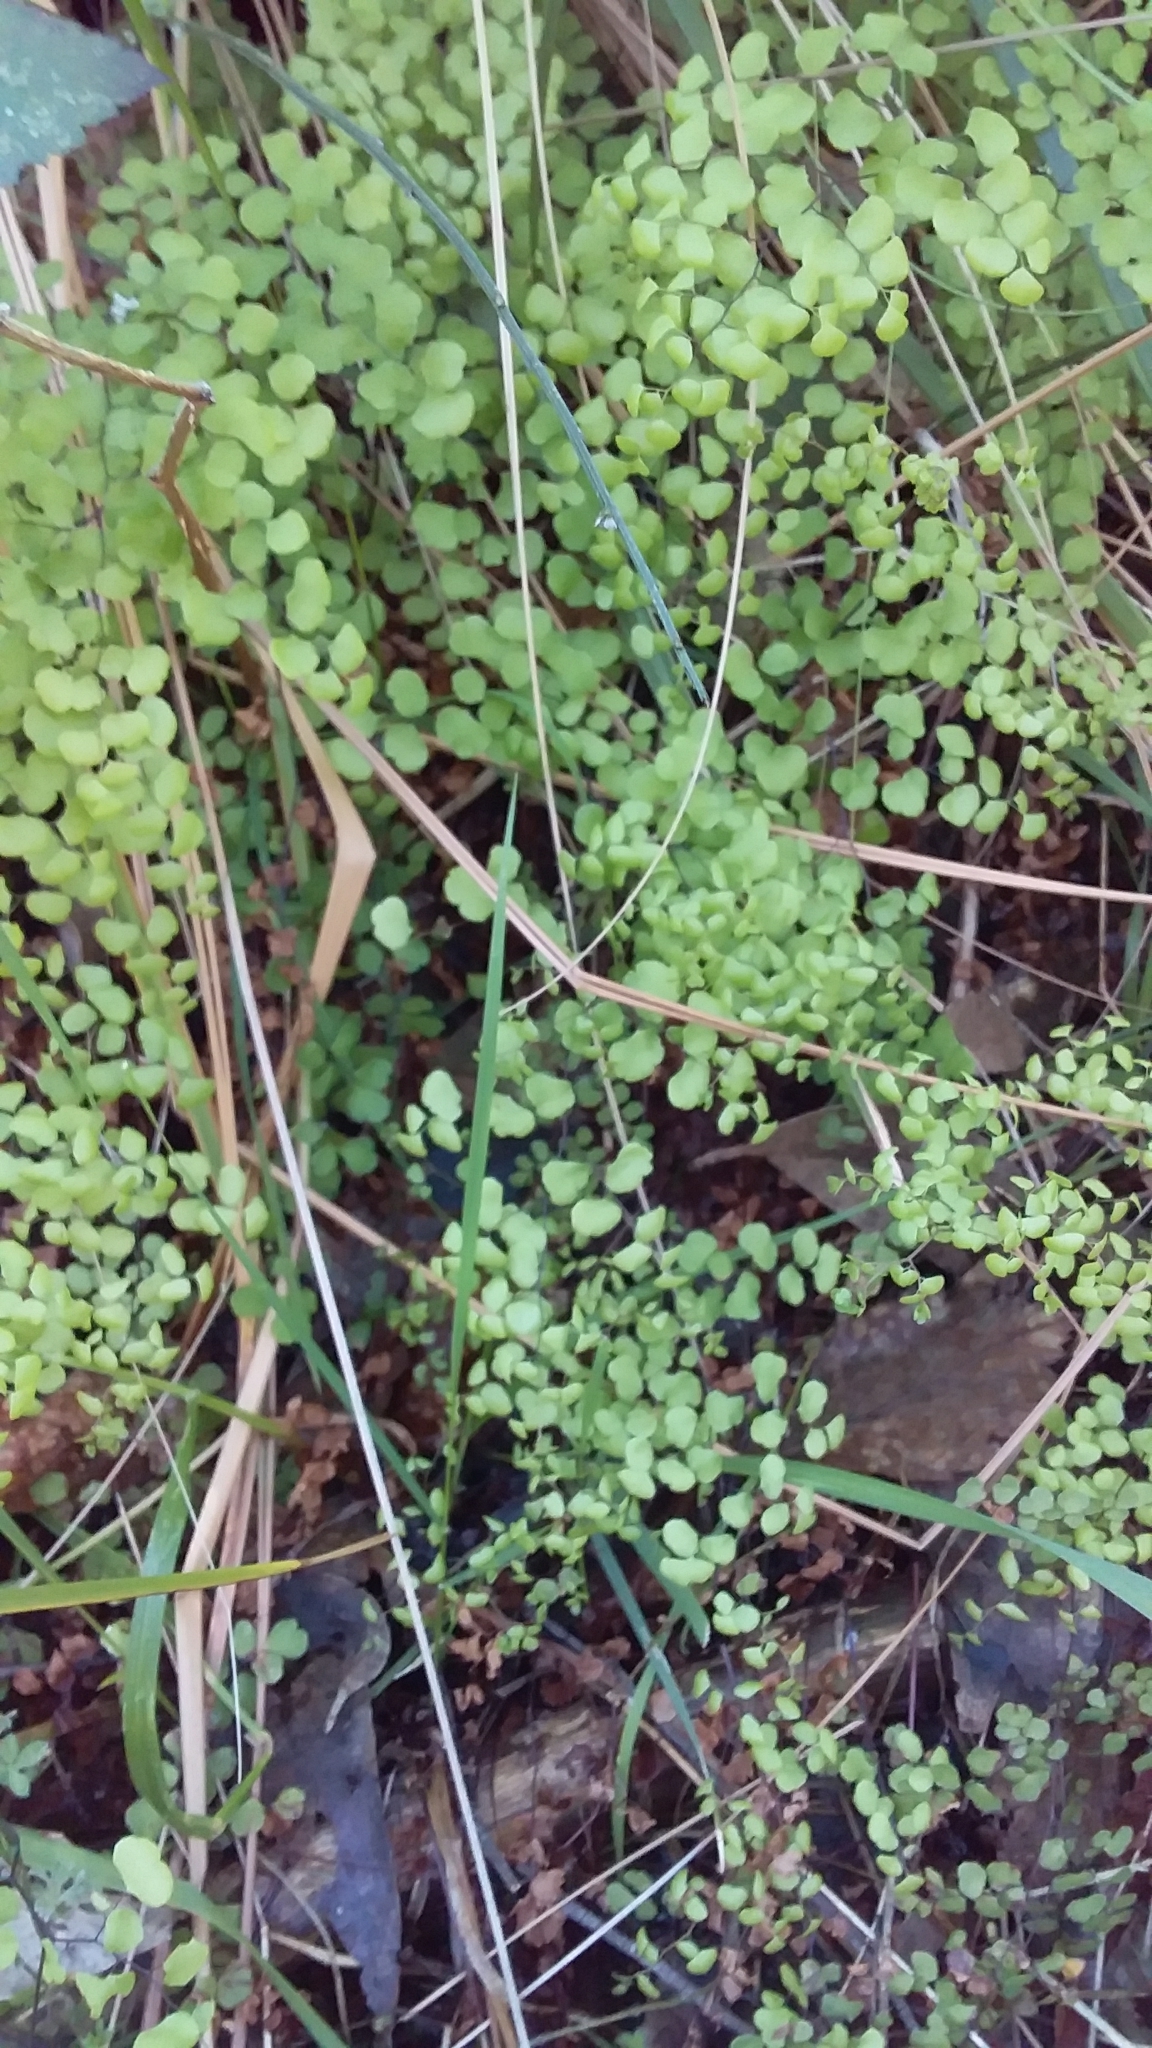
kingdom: Plantae
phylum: Tracheophyta
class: Polypodiopsida
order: Polypodiales
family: Pteridaceae
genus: Adiantum
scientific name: Adiantum aethiopicum
